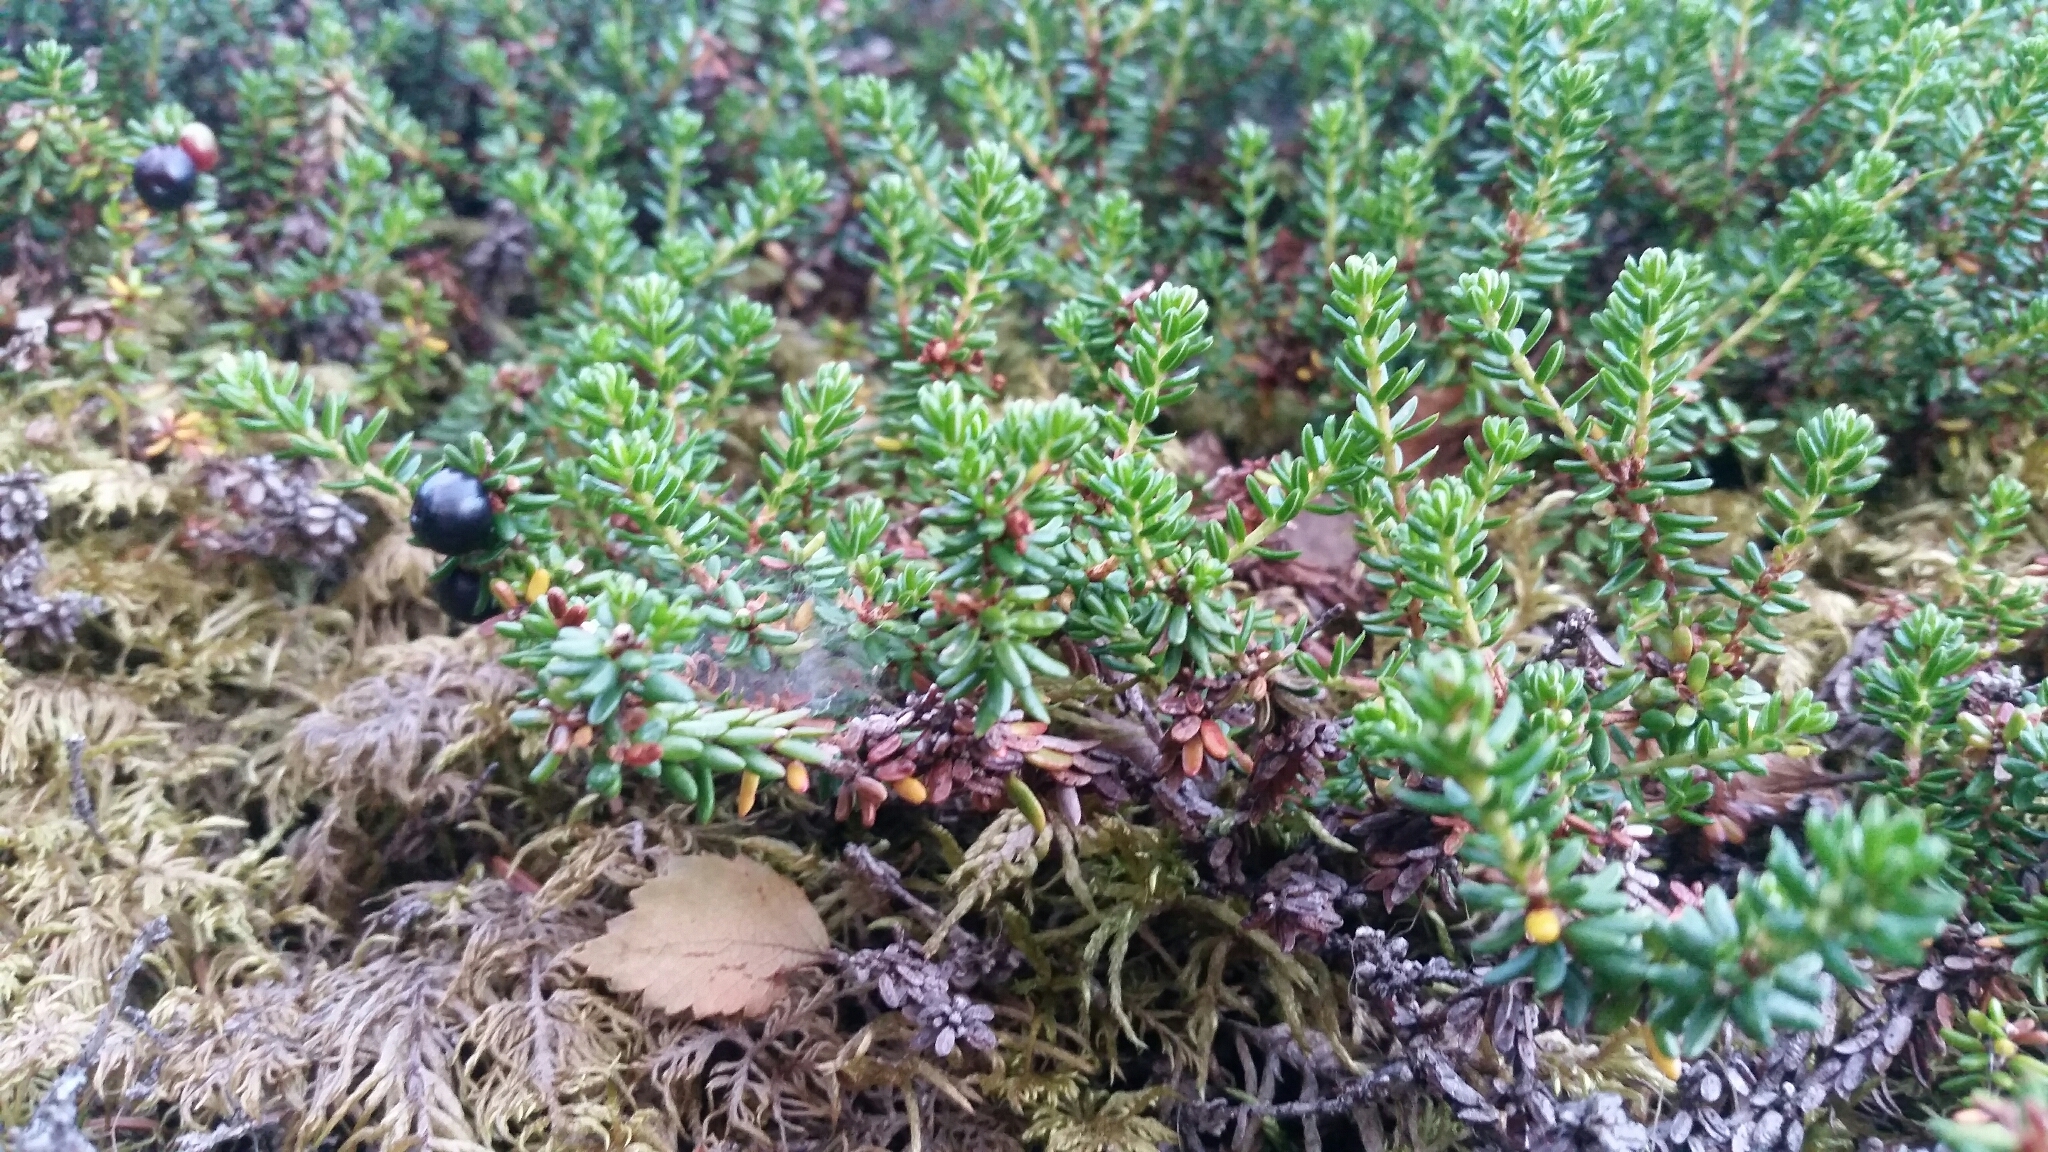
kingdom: Plantae
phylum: Tracheophyta
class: Magnoliopsida
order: Ericales
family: Ericaceae
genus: Empetrum
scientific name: Empetrum nigrum
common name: Black crowberry
